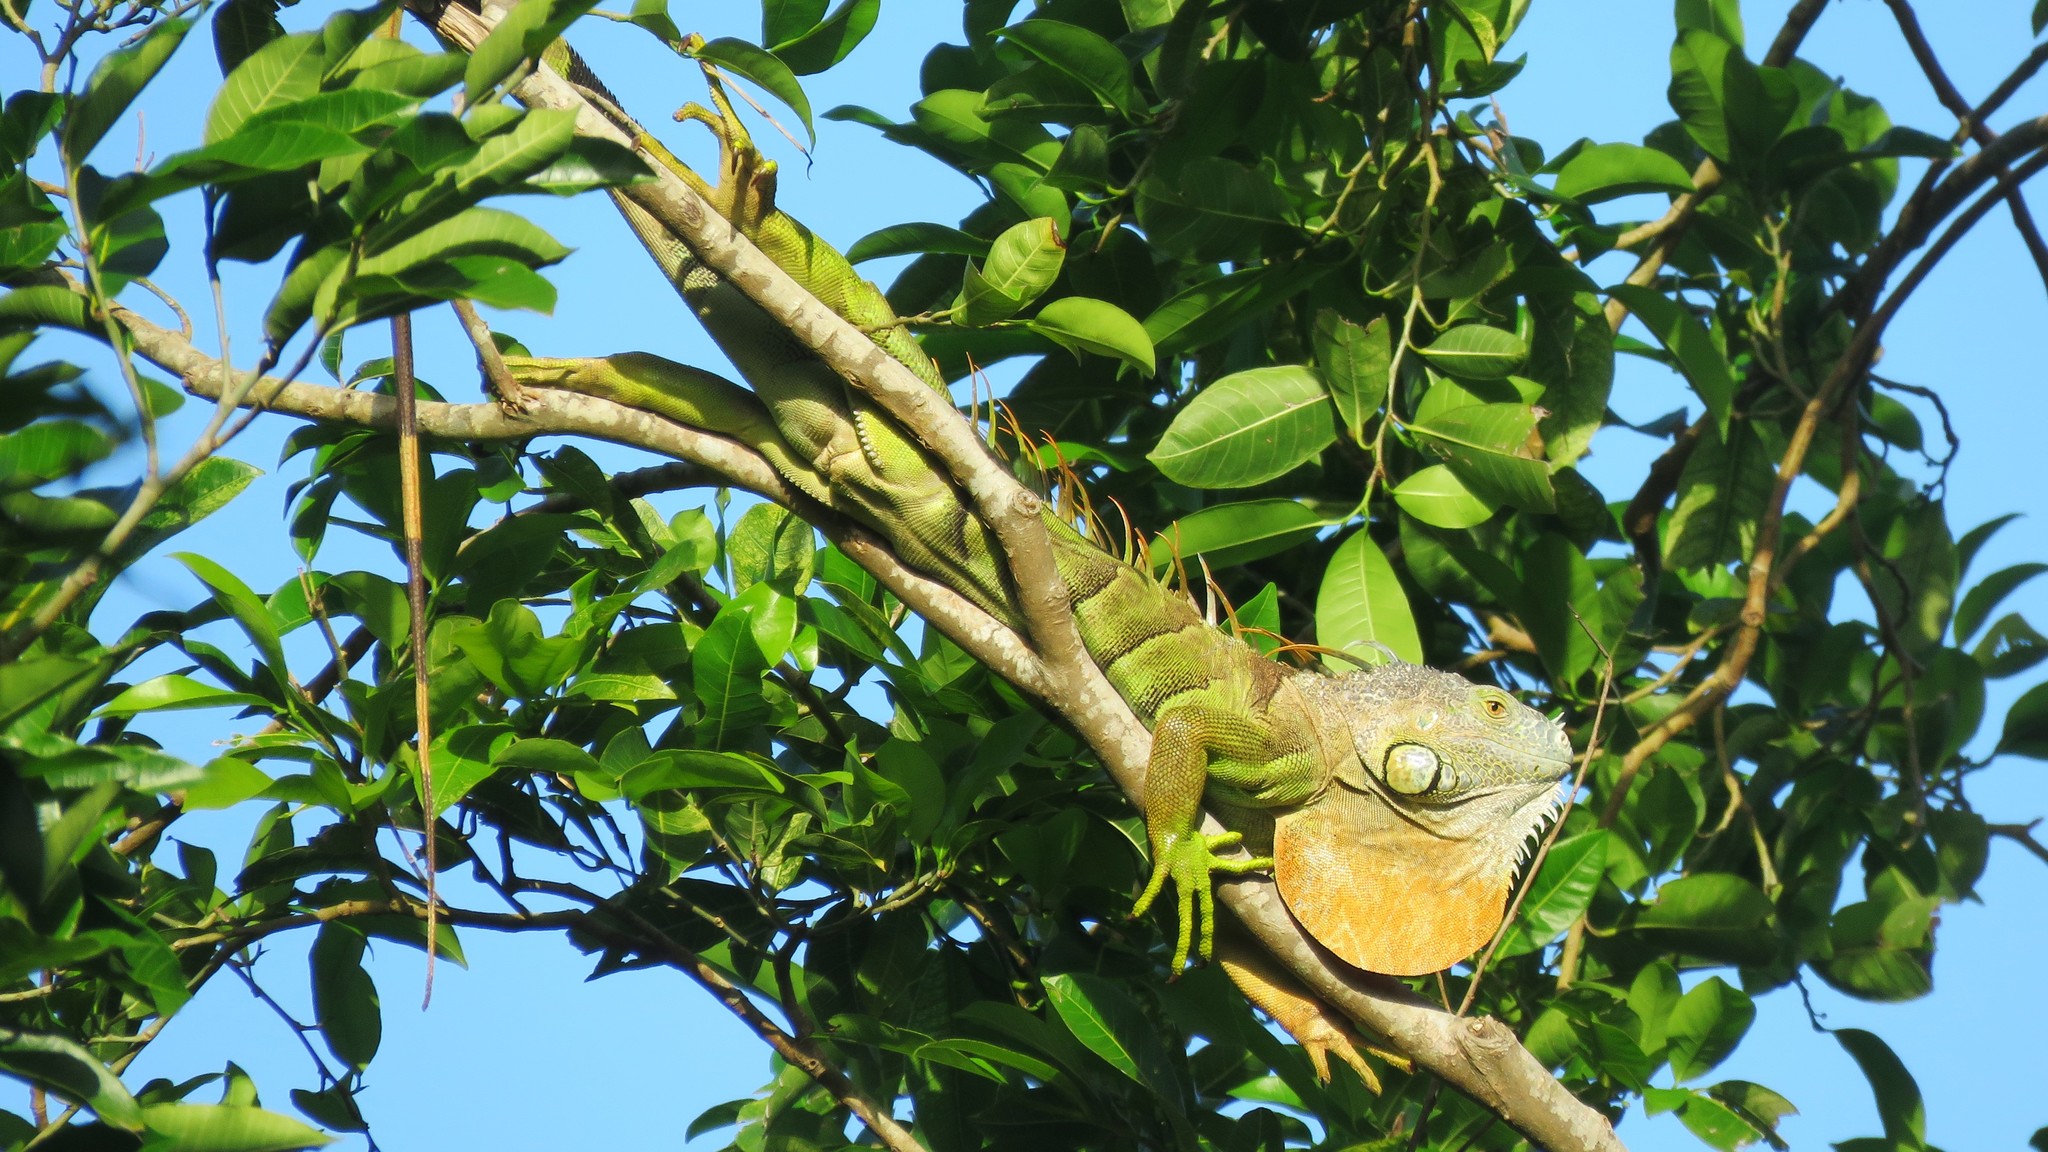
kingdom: Animalia
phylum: Chordata
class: Squamata
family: Iguanidae
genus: Iguana
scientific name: Iguana iguana
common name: Green iguana
